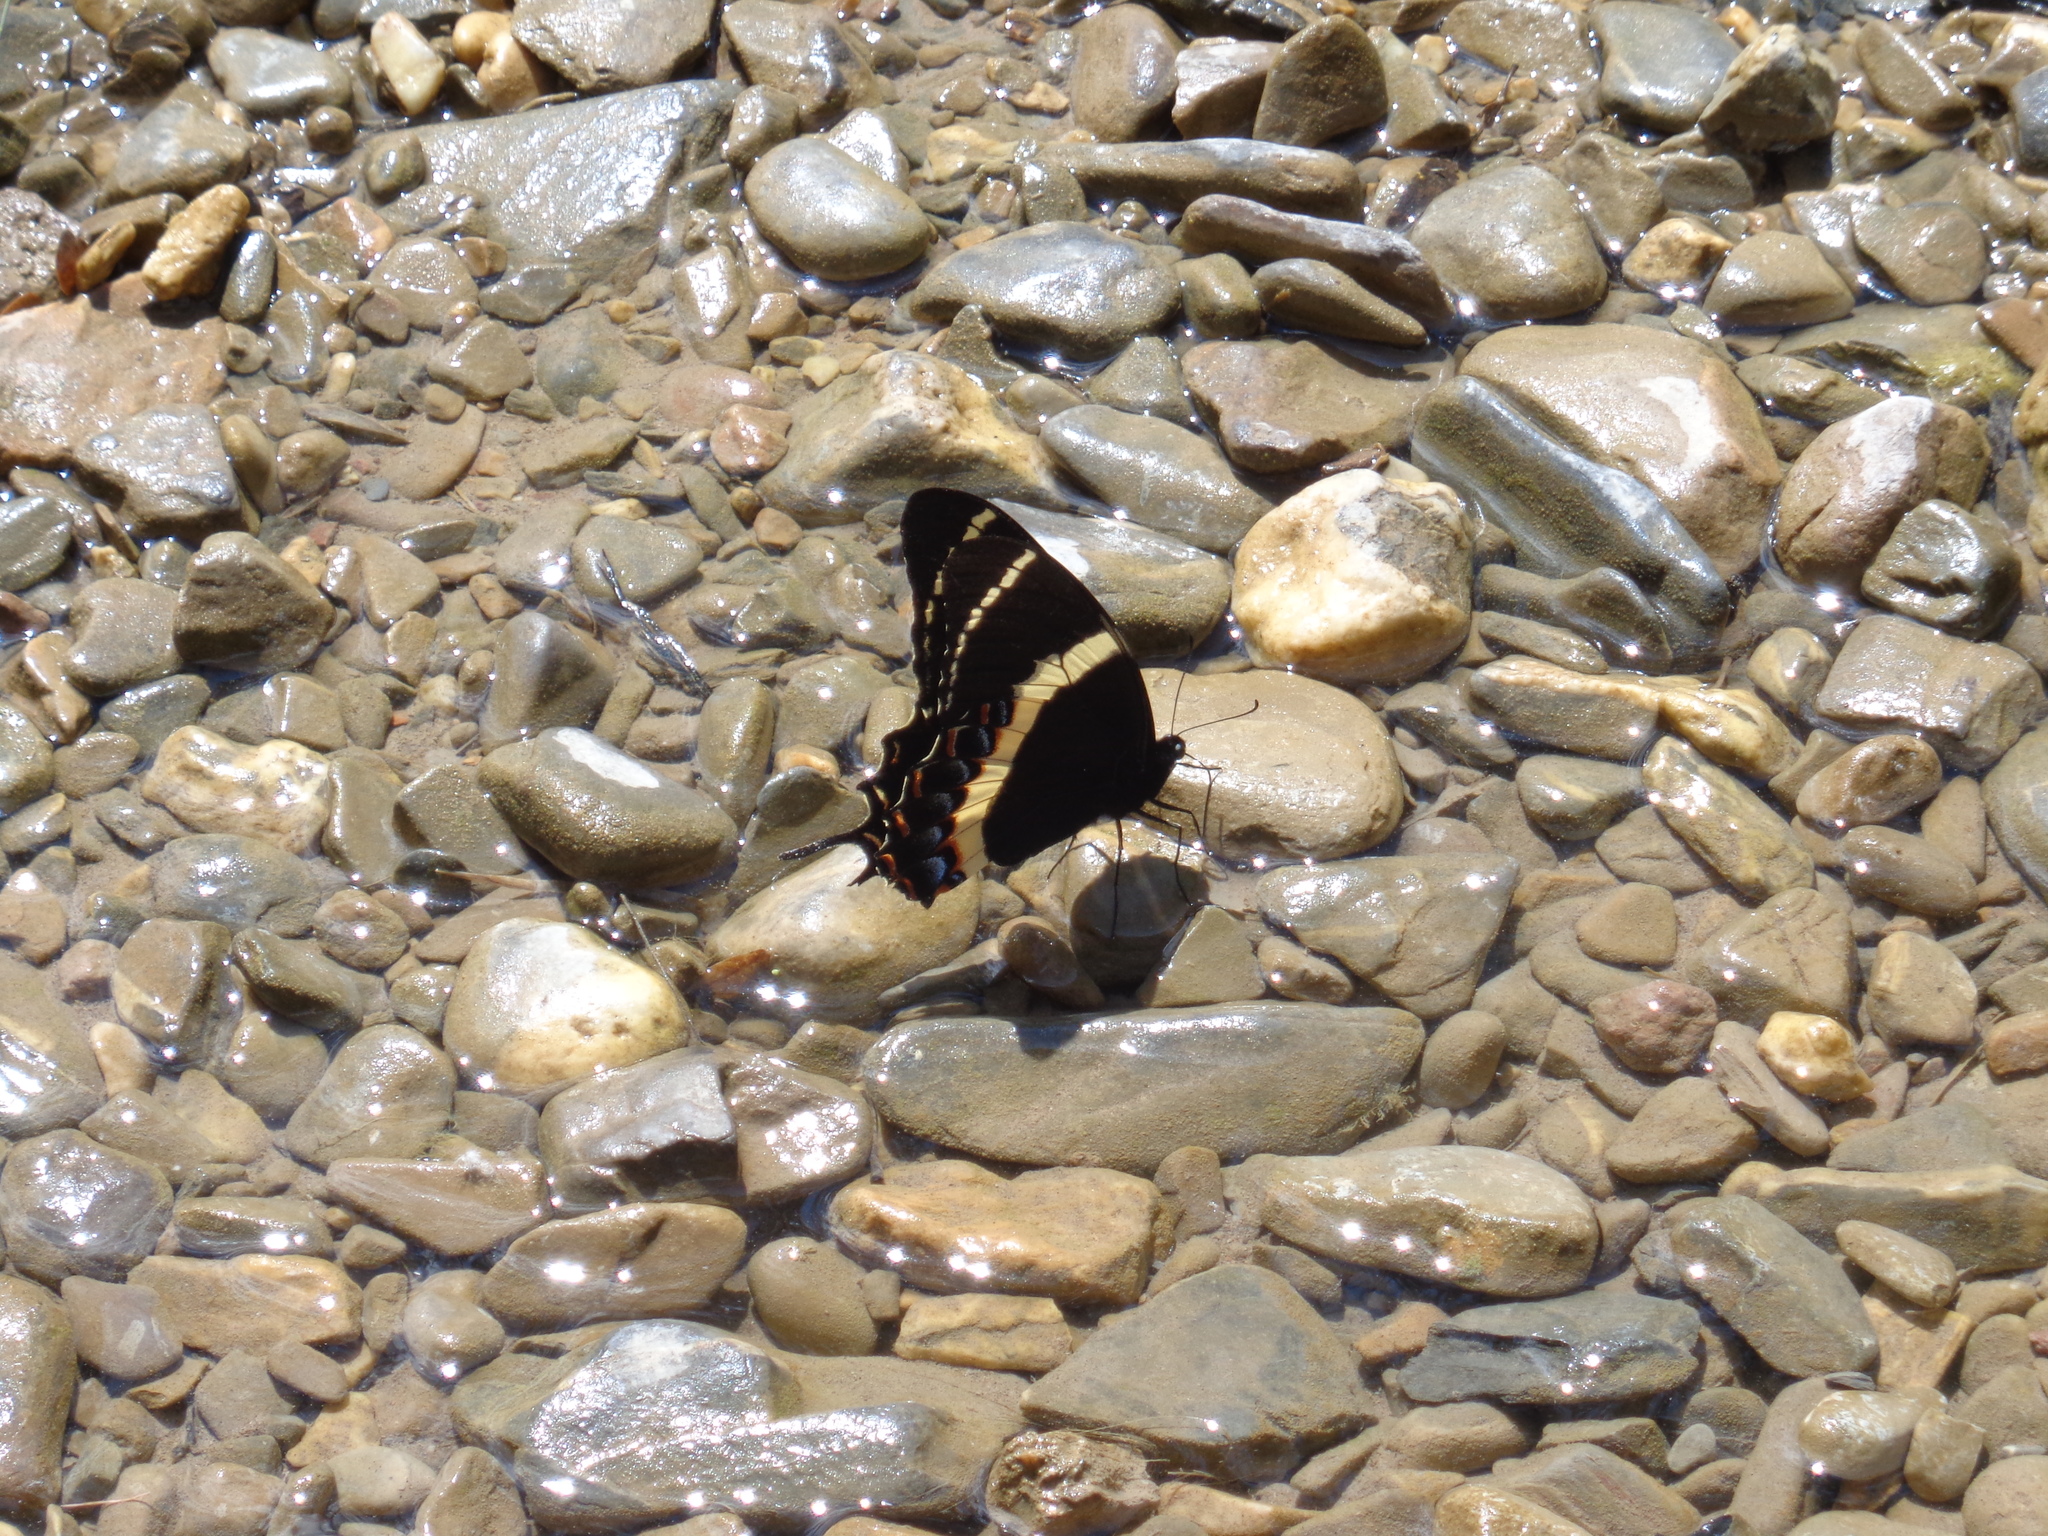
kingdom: Animalia
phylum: Arthropoda
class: Insecta
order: Lepidoptera
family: Papilionidae
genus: Papilio
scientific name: Papilio garamas
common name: Magnificent swallowtail
